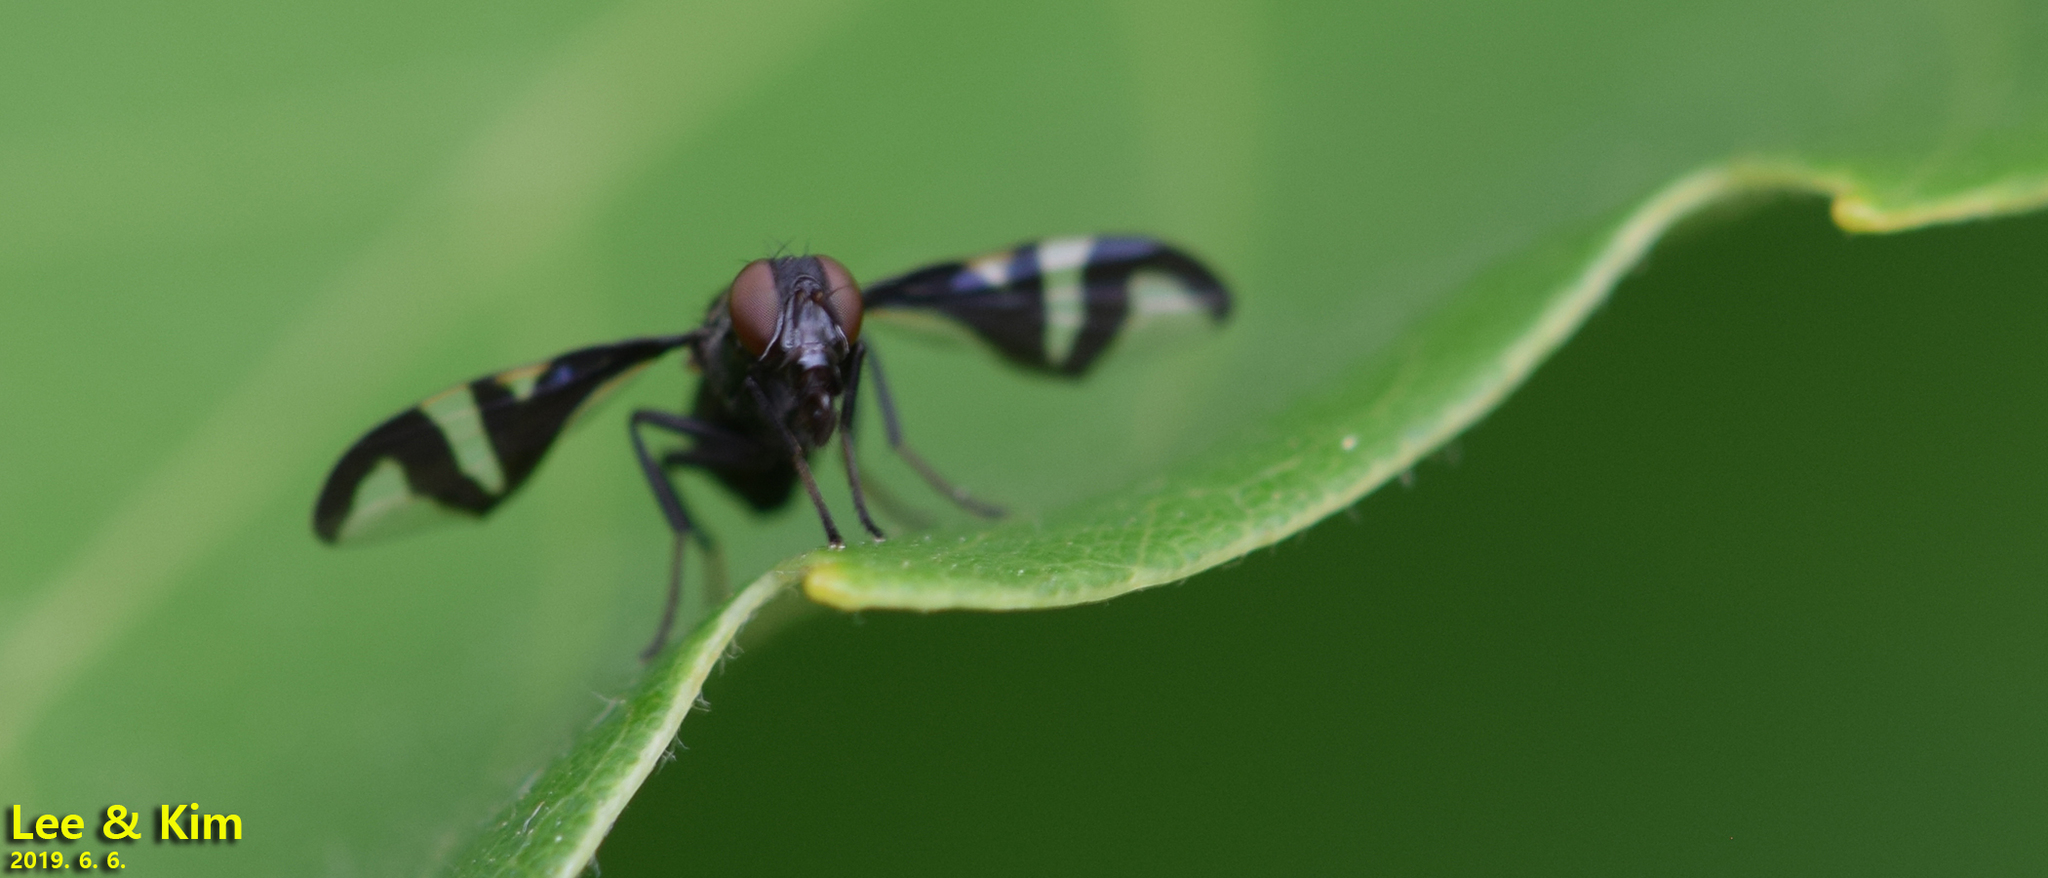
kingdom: Animalia
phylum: Arthropoda
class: Insecta
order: Diptera
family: Platystomatidae
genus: Rivellia
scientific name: Rivellia alini
